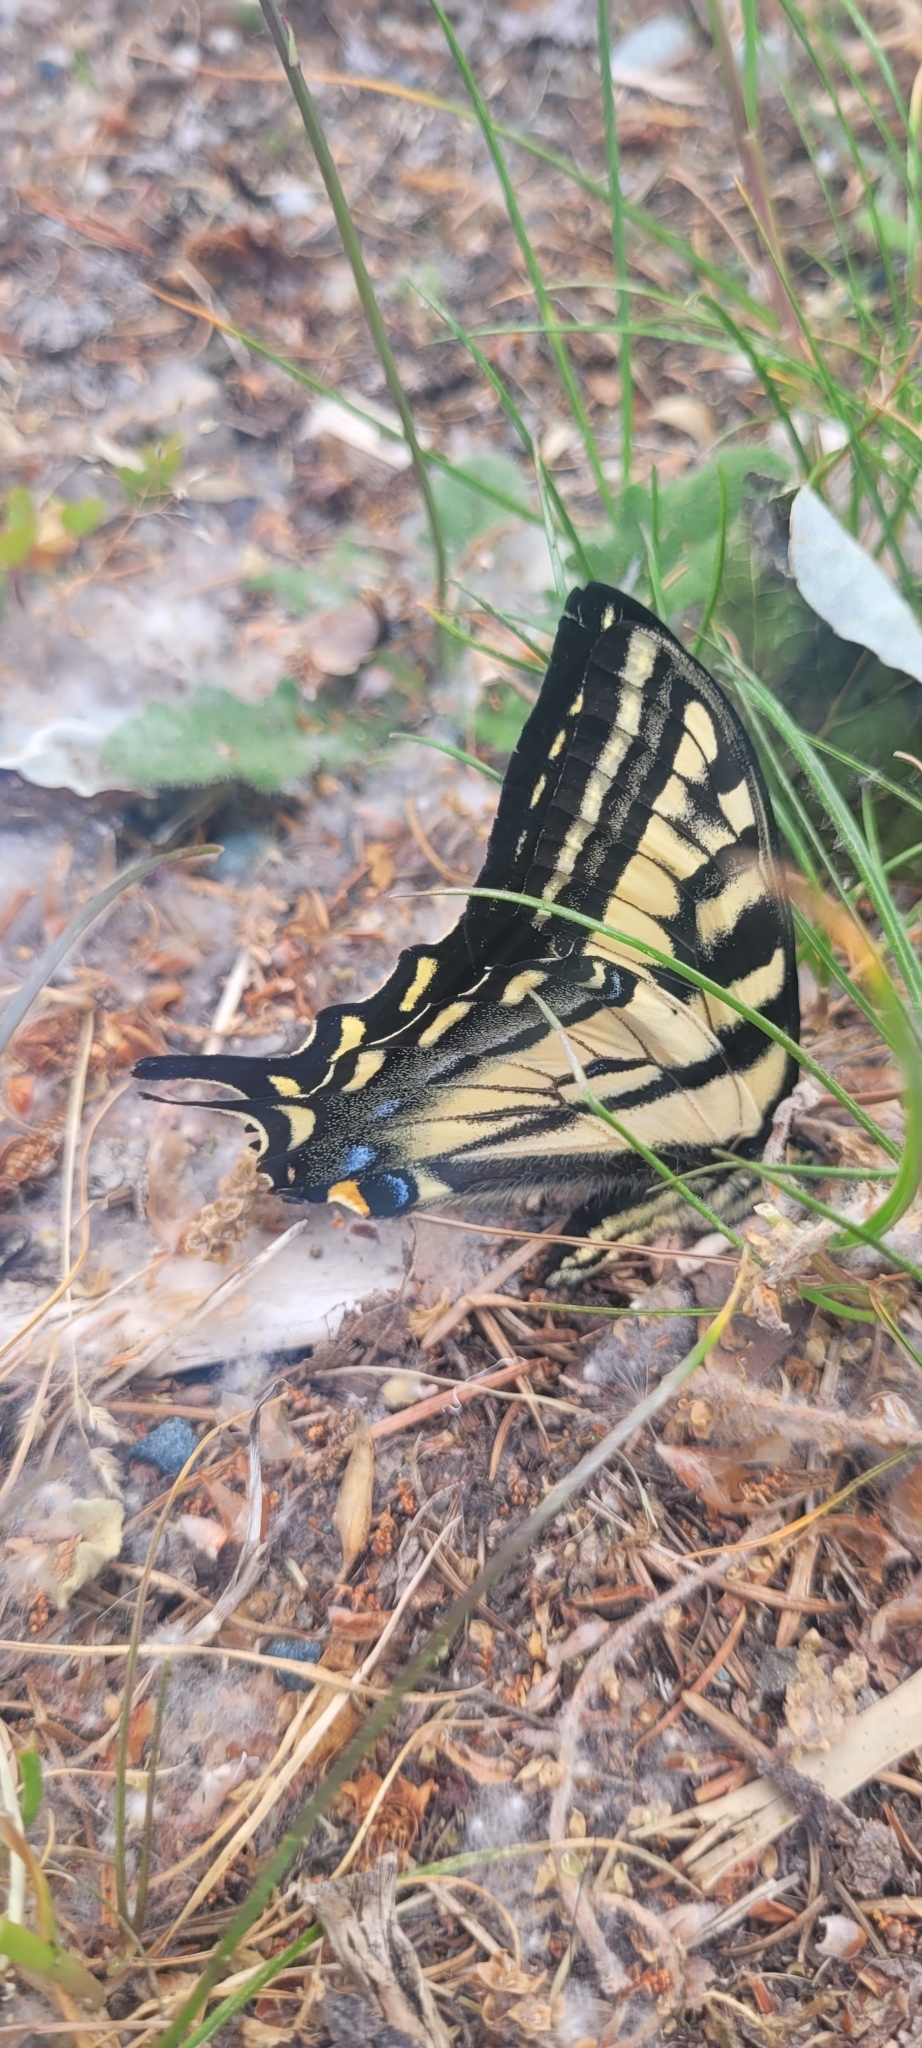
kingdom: Animalia
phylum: Arthropoda
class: Insecta
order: Lepidoptera
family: Papilionidae
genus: Papilio
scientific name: Papilio rutulus
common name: Western tiger swallowtail
